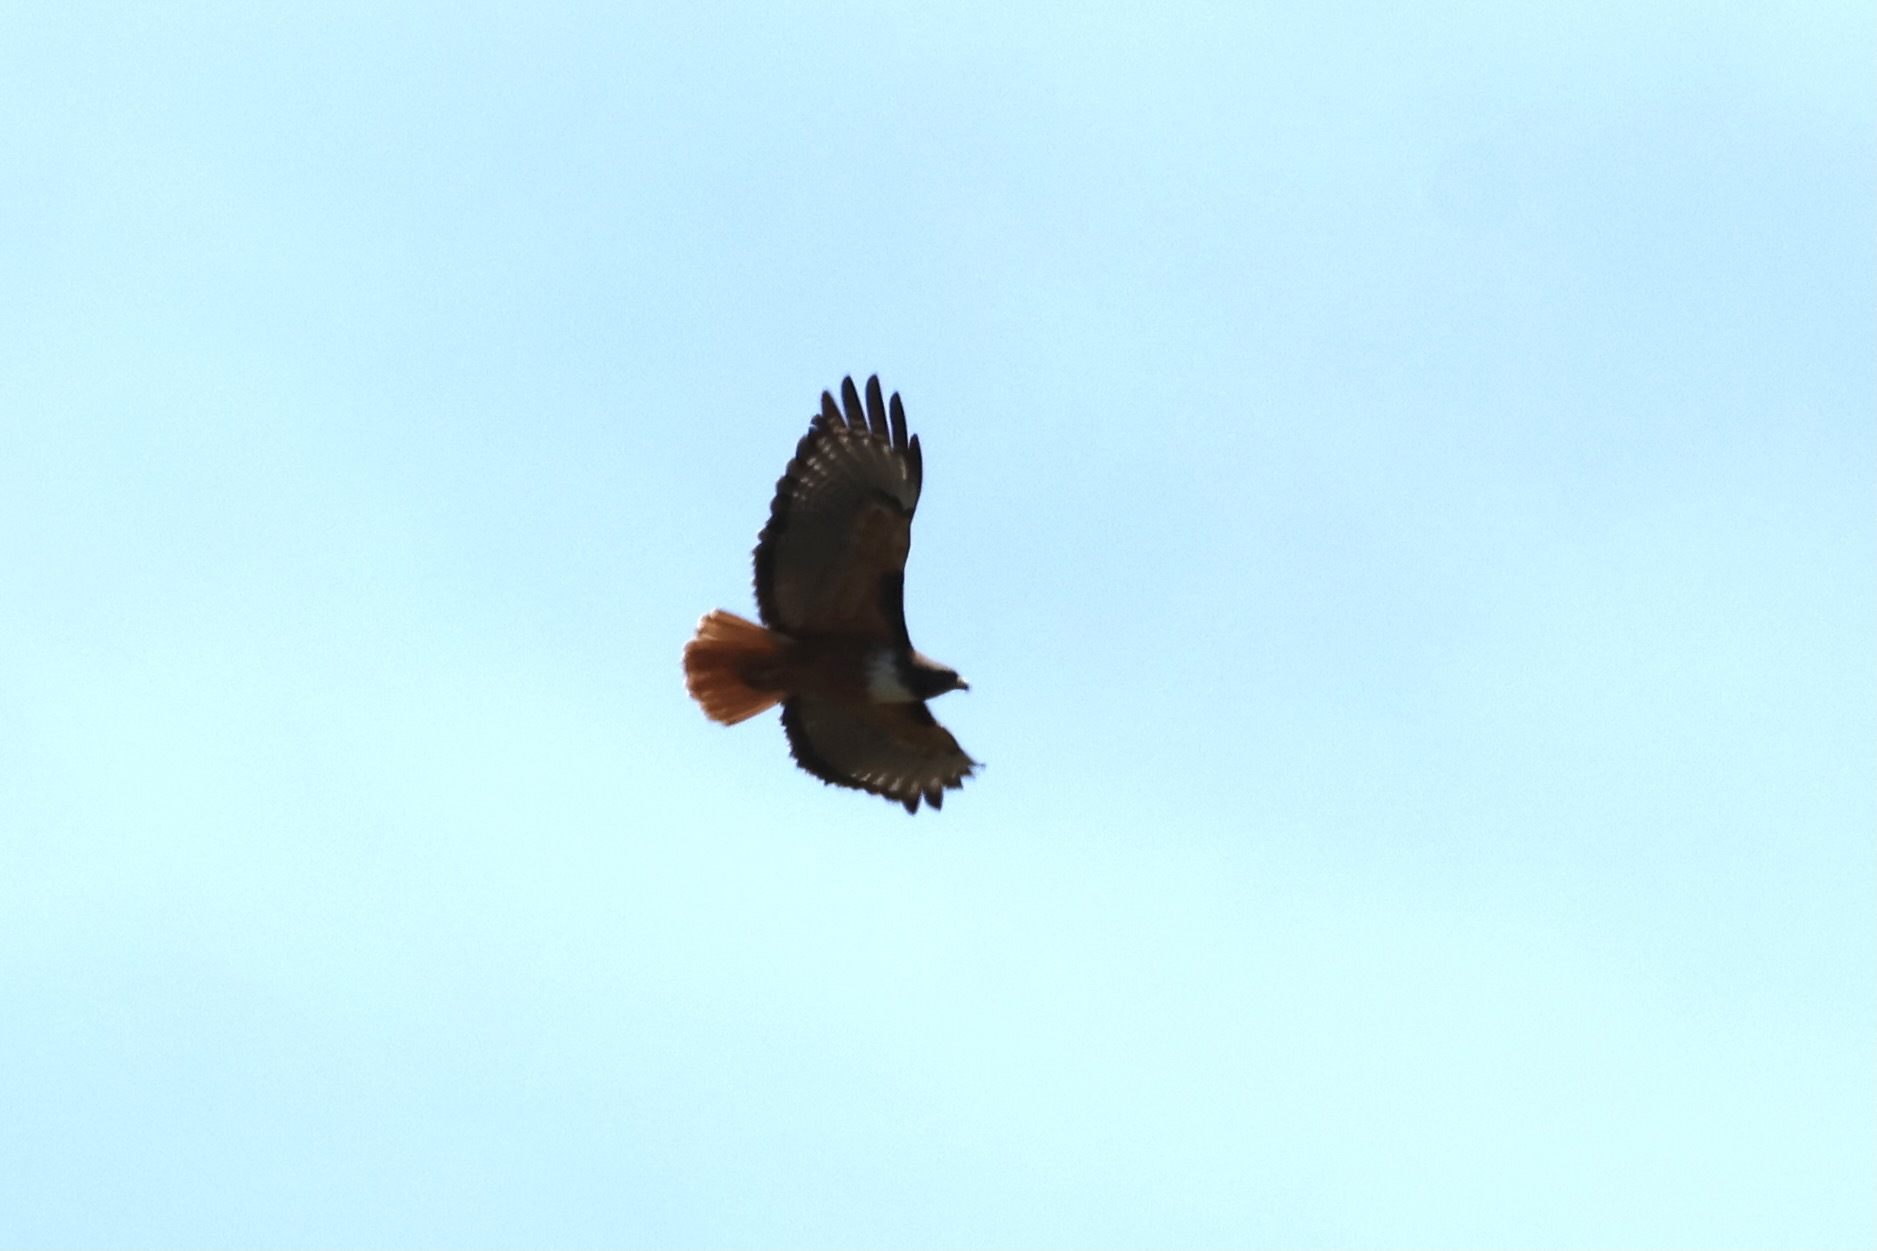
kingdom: Animalia
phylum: Chordata
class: Aves
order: Accipitriformes
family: Accipitridae
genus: Buteo
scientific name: Buteo jamaicensis
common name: Red-tailed hawk
